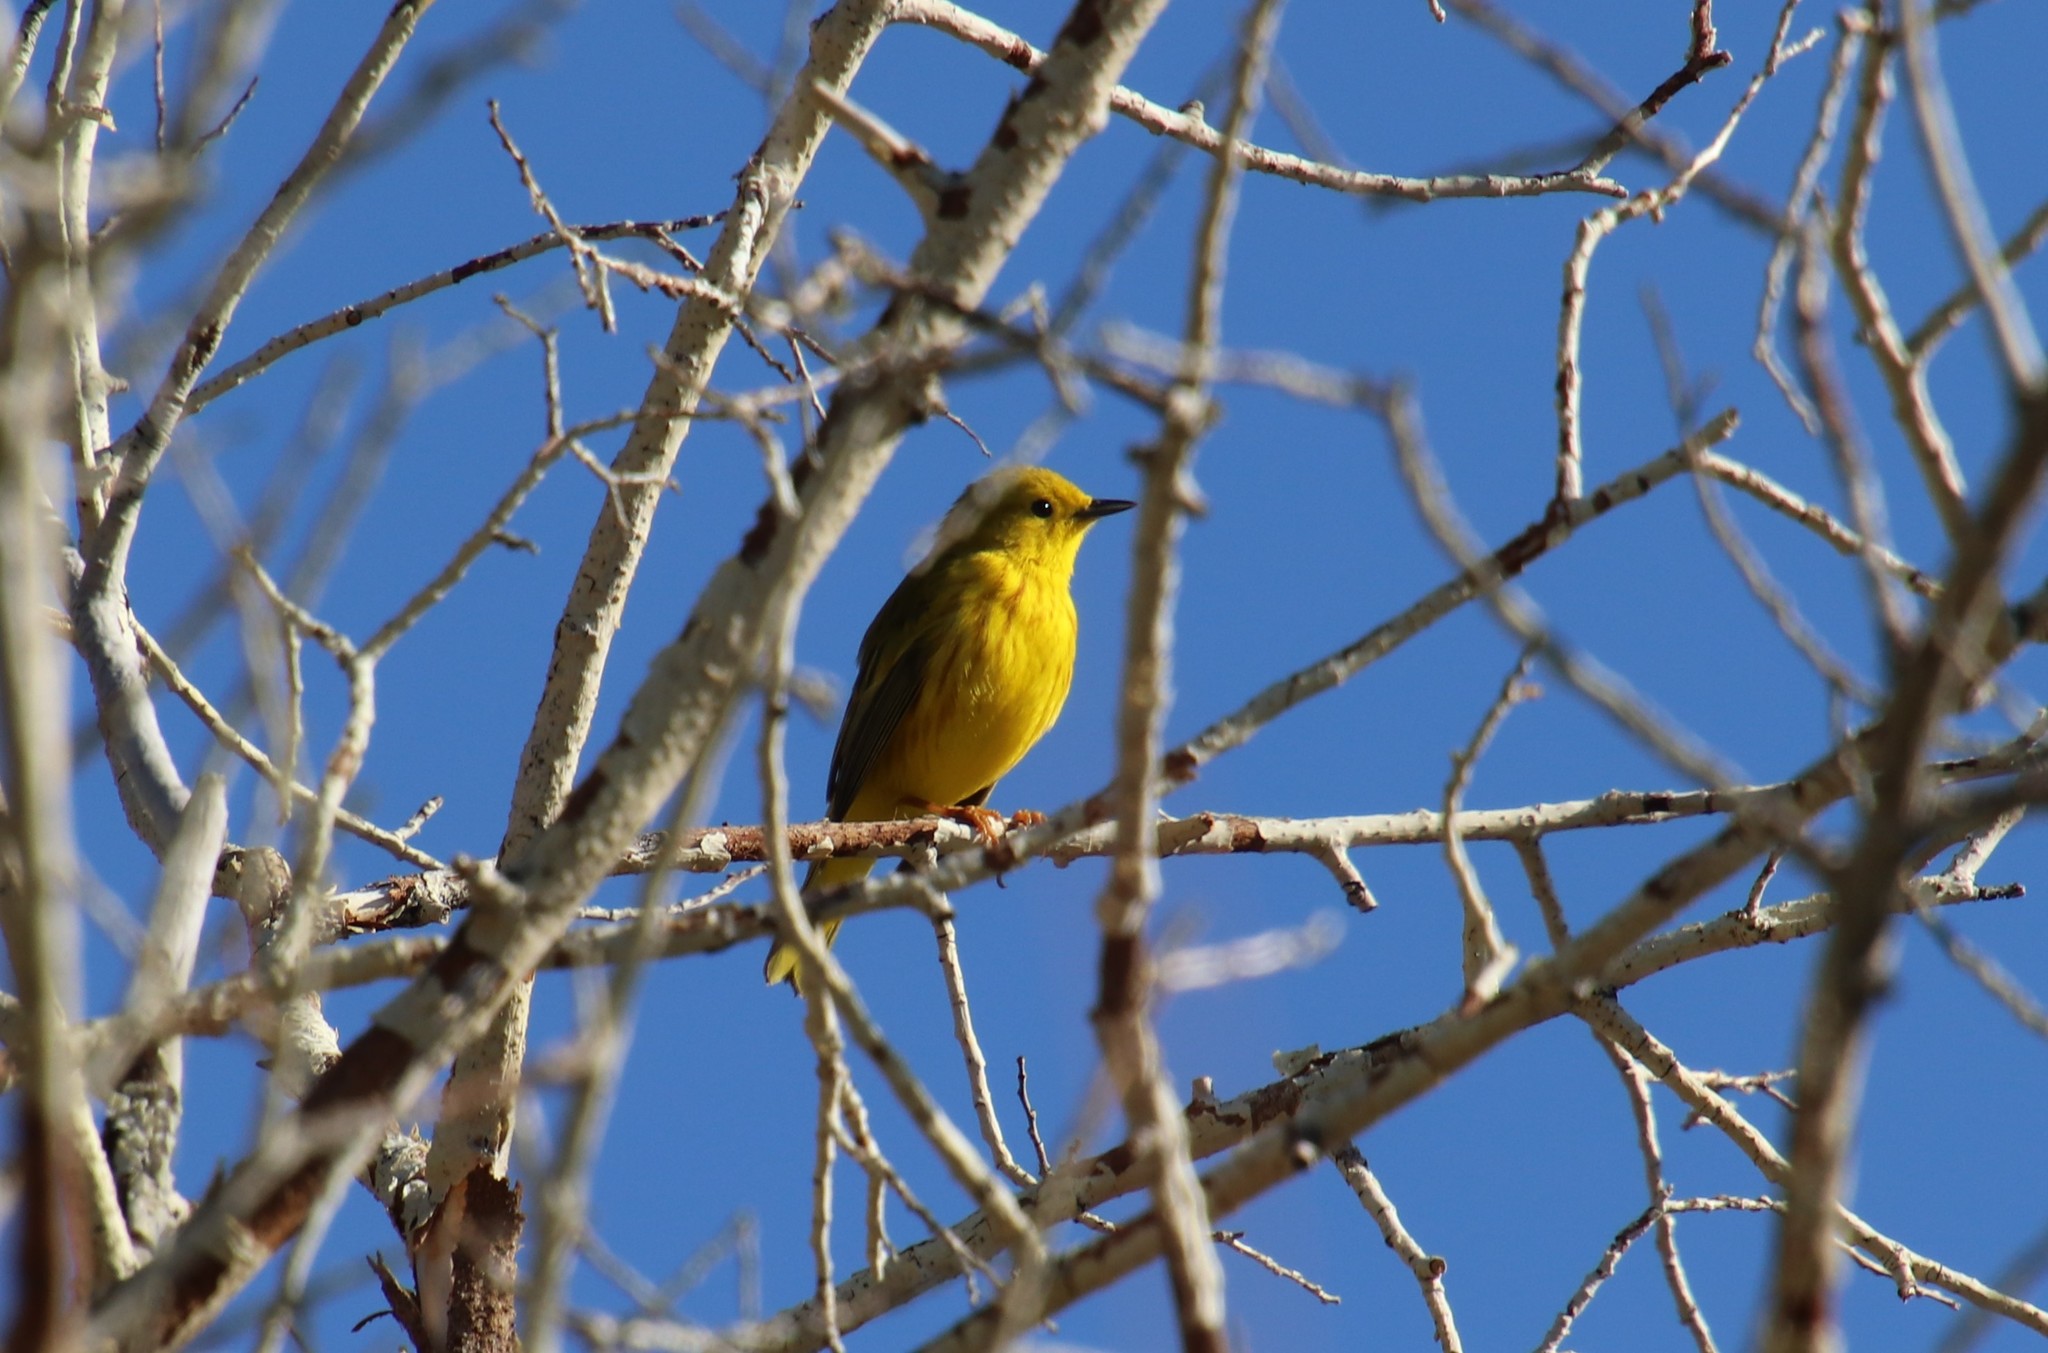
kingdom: Animalia
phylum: Chordata
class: Aves
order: Passeriformes
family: Parulidae
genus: Setophaga
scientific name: Setophaga petechia
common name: Yellow warbler
